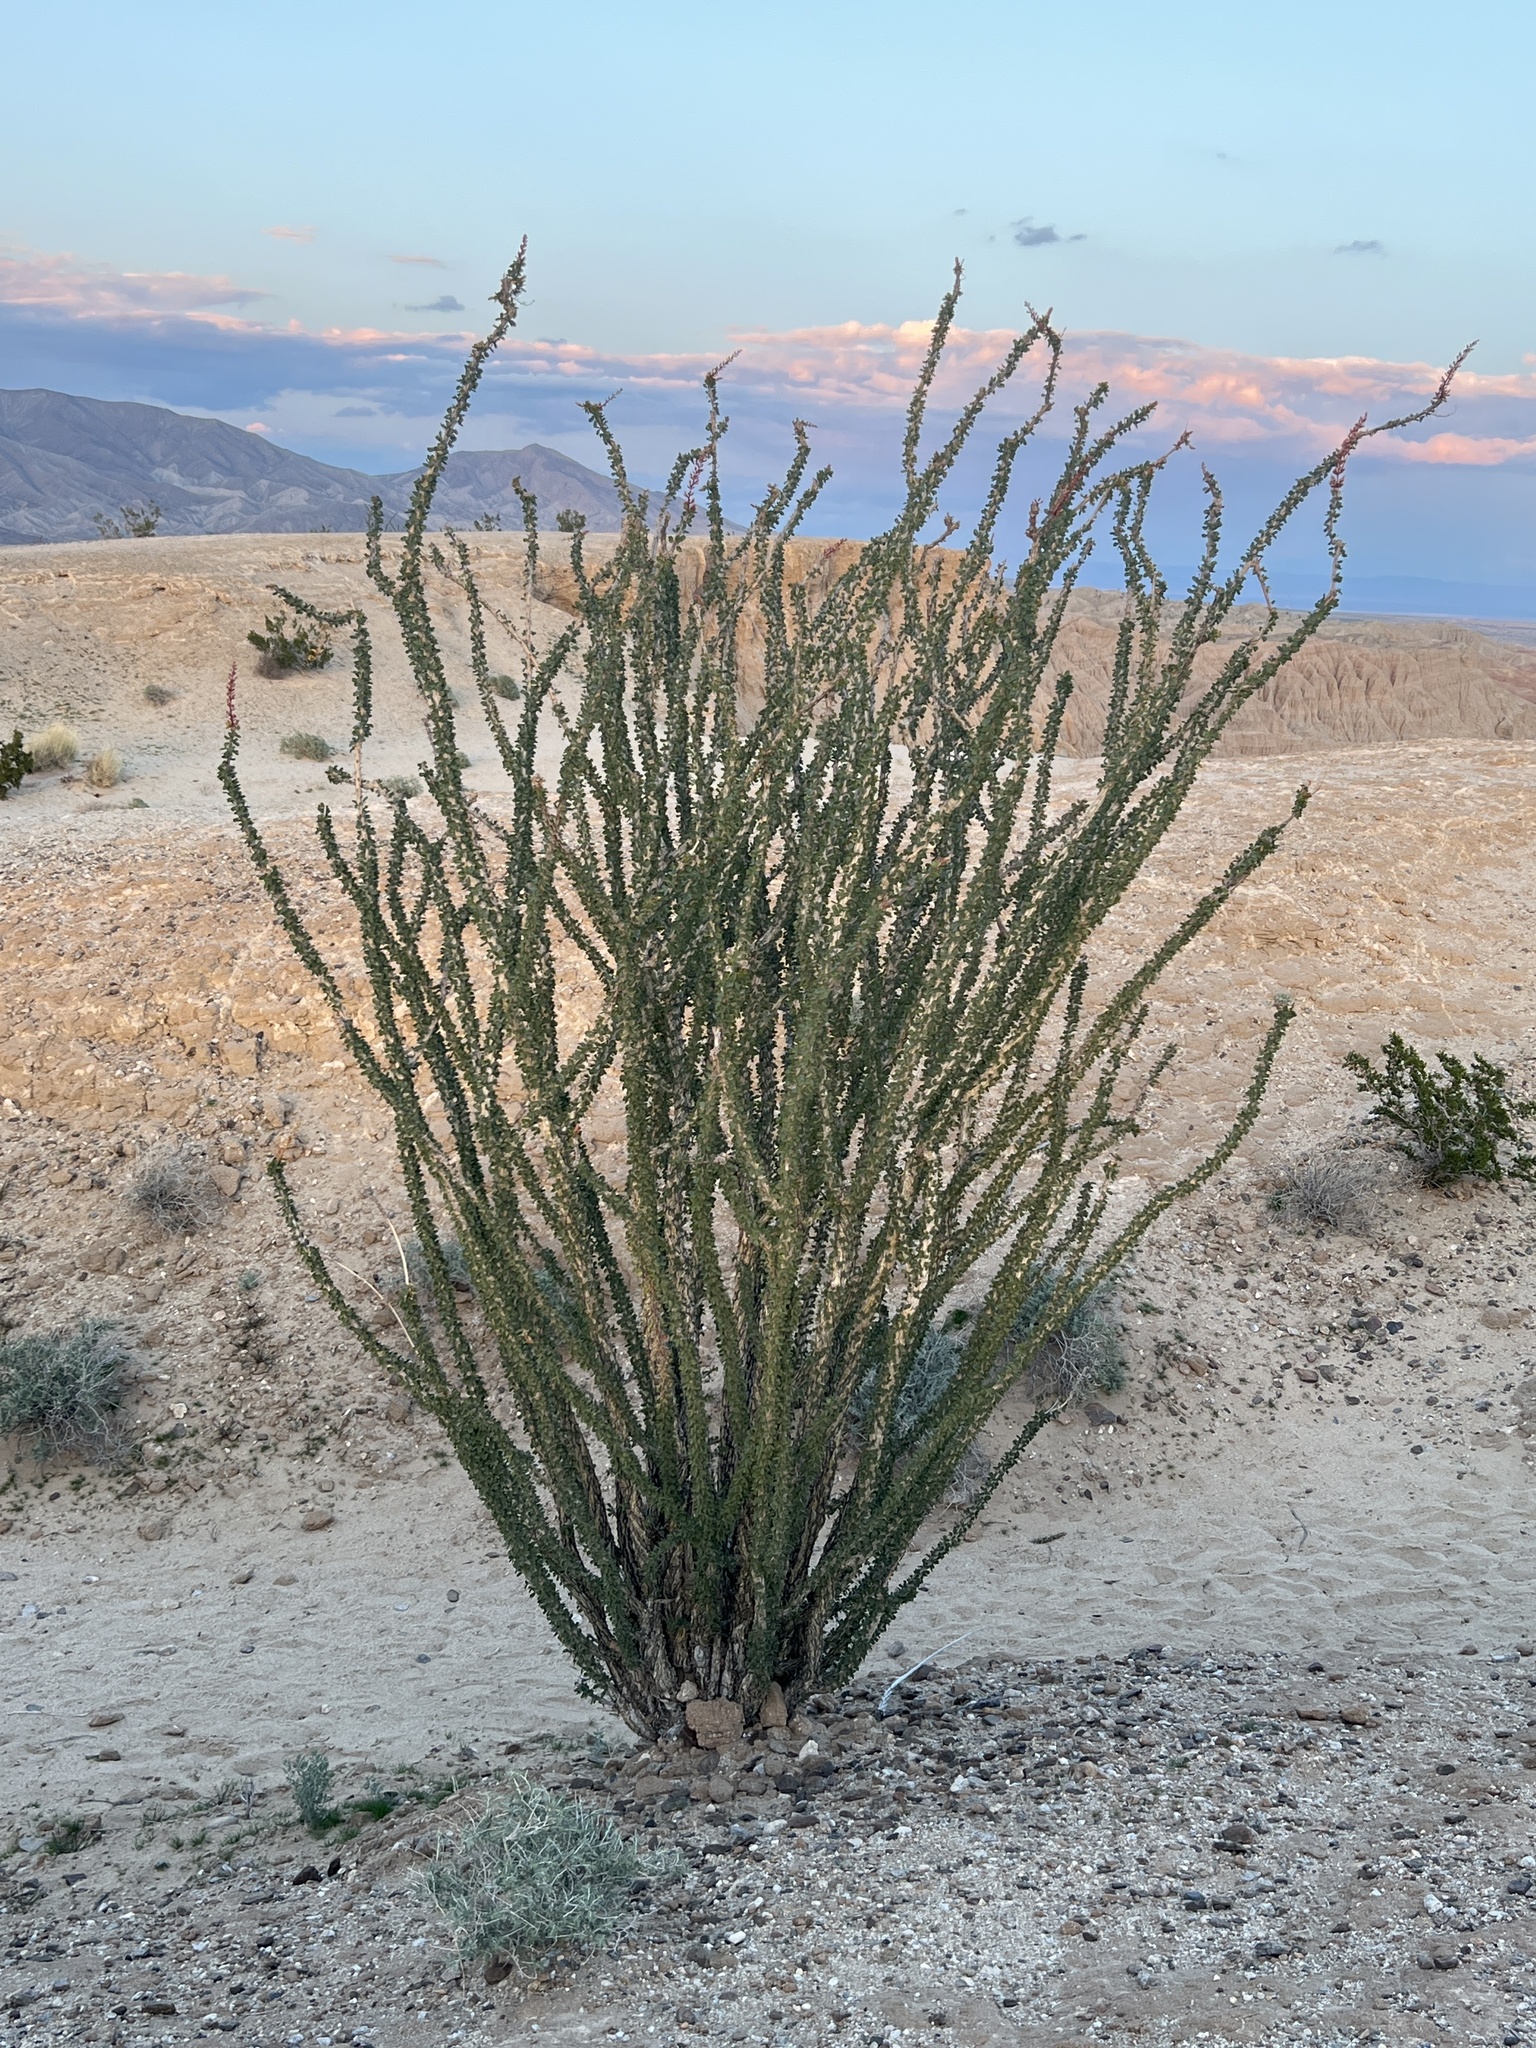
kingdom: Plantae
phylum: Tracheophyta
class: Magnoliopsida
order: Ericales
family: Fouquieriaceae
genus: Fouquieria
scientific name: Fouquieria splendens
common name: Vine-cactus
